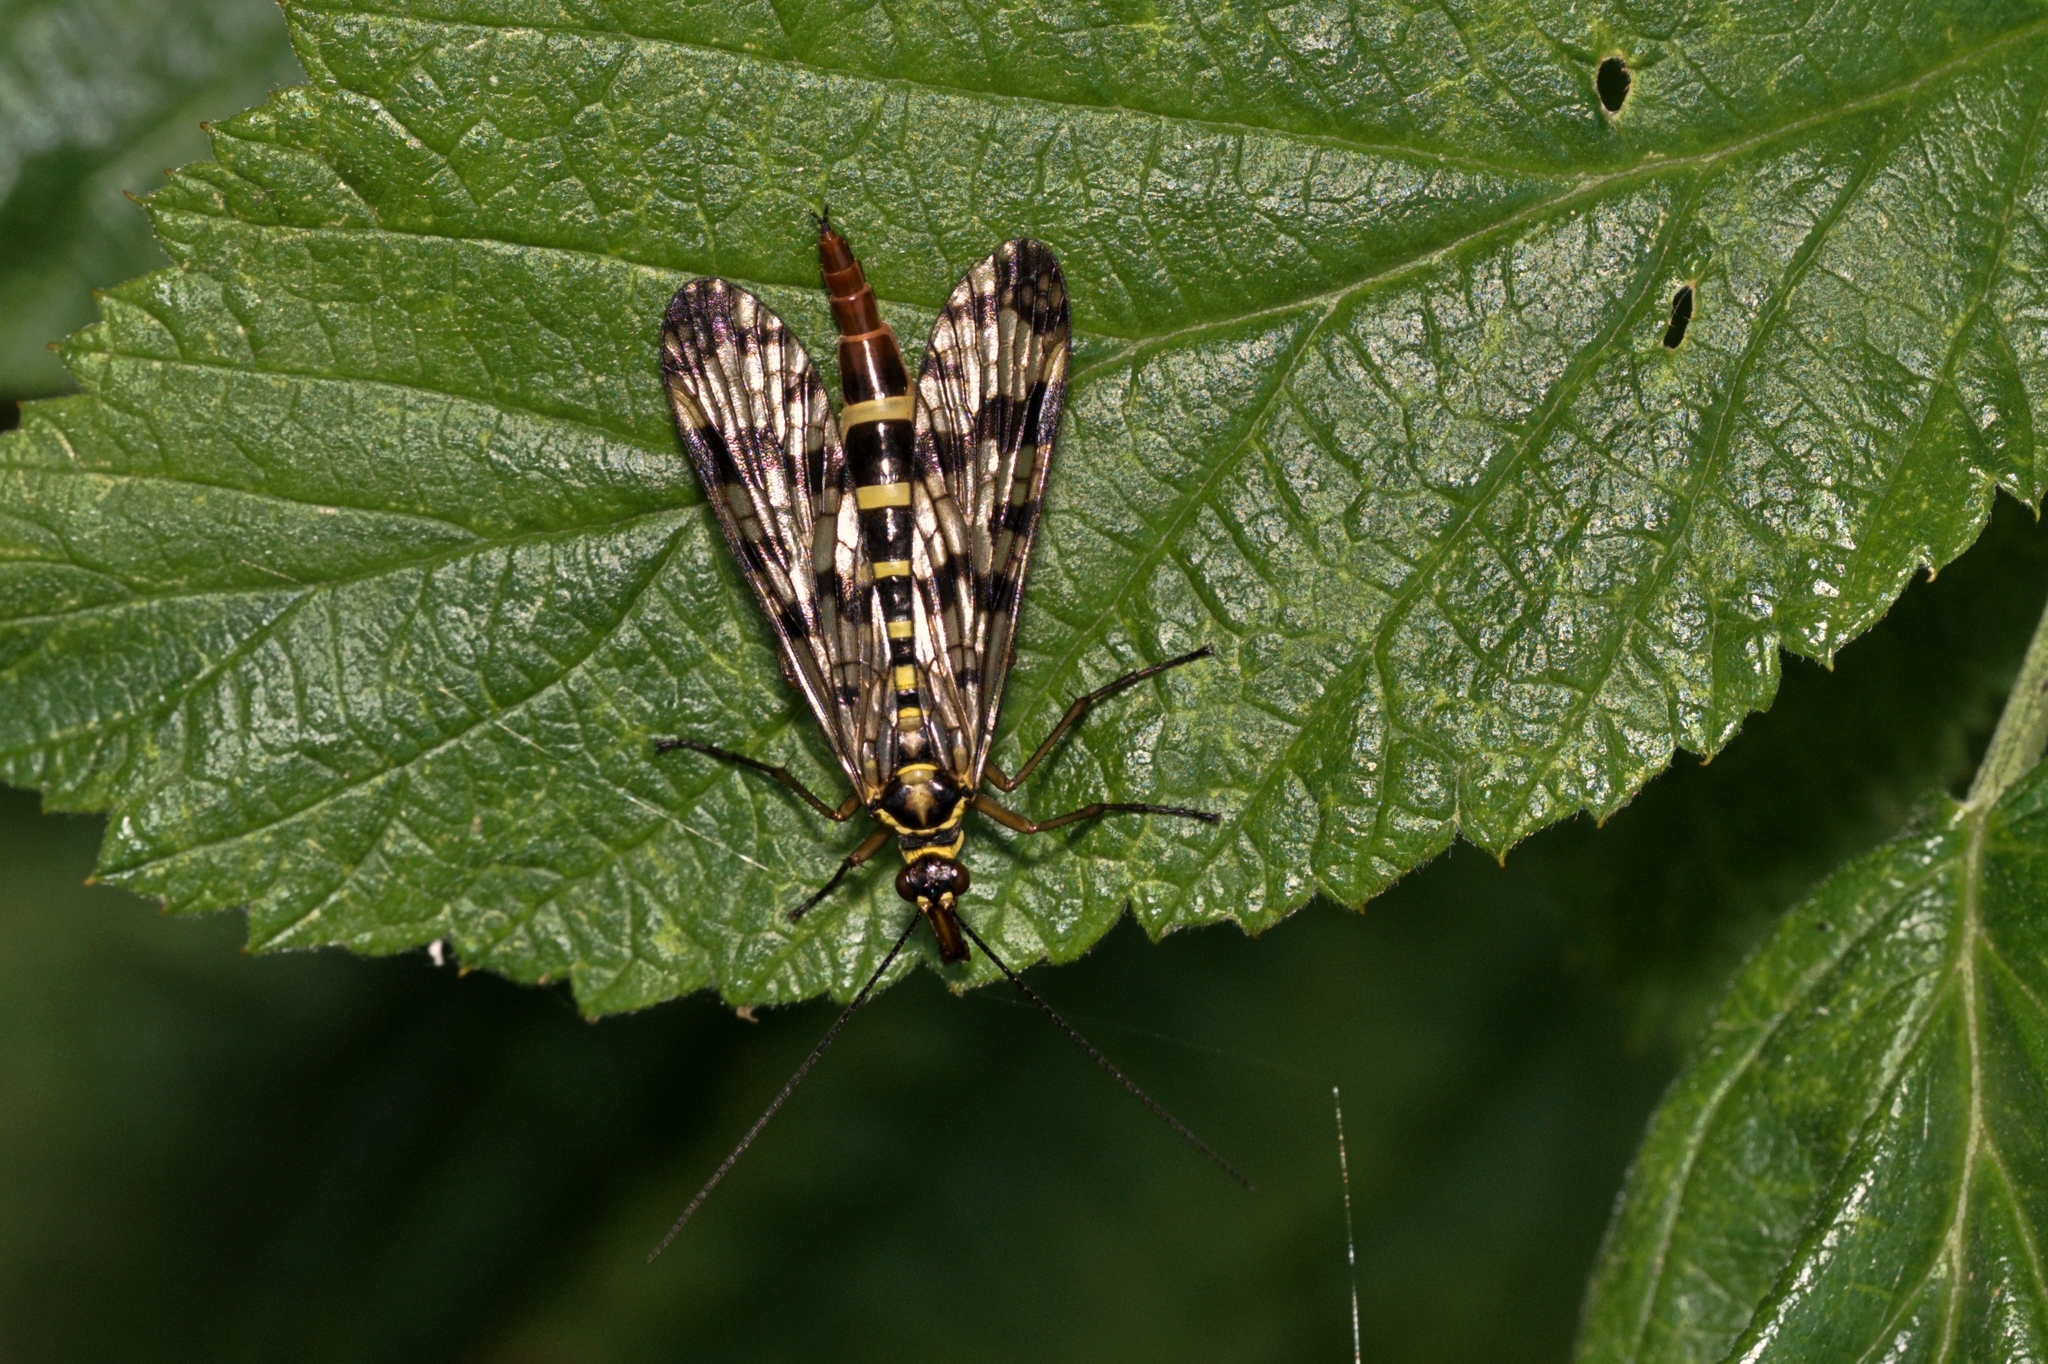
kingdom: Animalia
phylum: Arthropoda
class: Insecta
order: Mecoptera
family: Panorpidae
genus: Panorpa
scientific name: Panorpa communis
